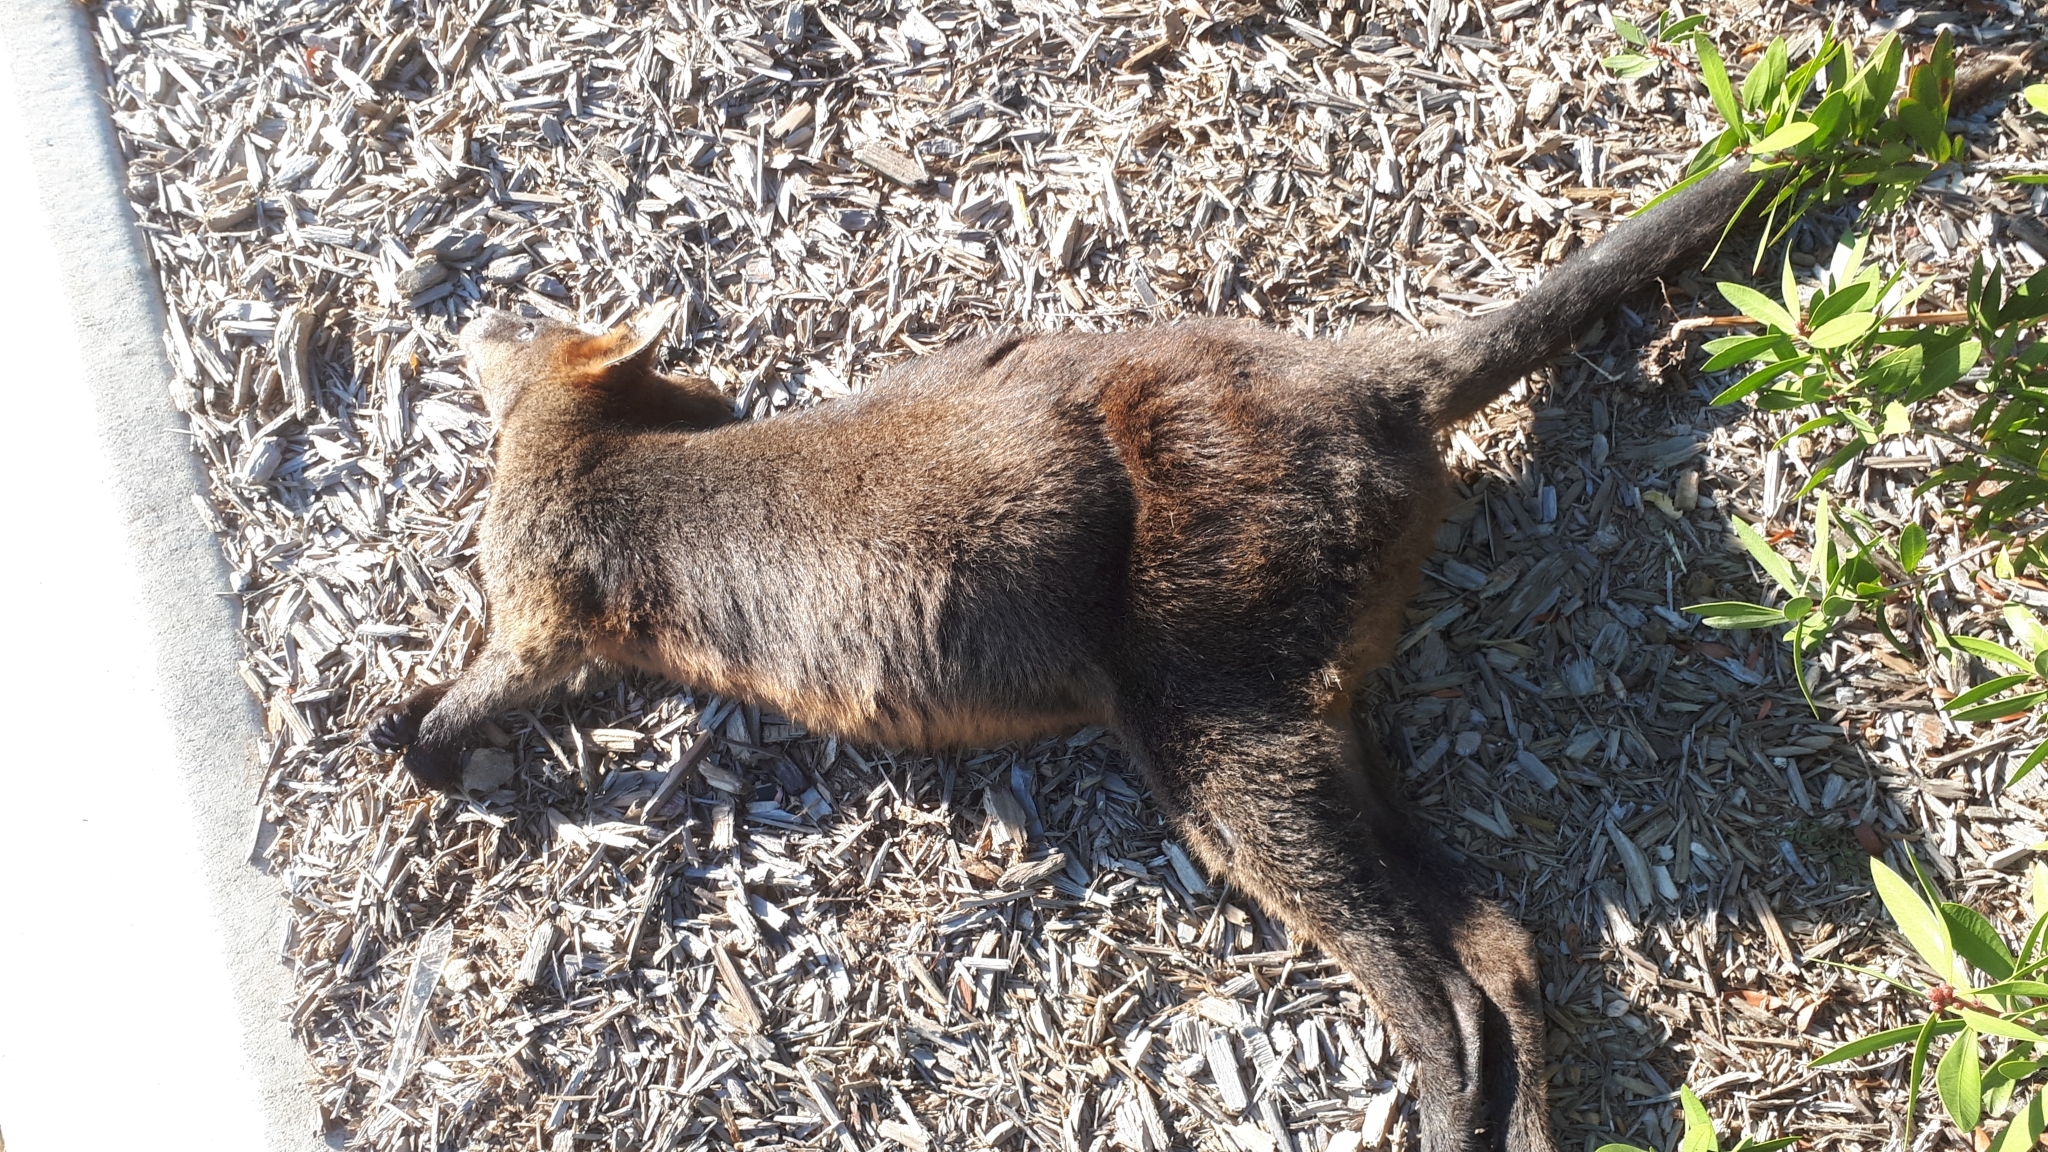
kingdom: Animalia
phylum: Chordata
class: Mammalia
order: Diprotodontia
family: Macropodidae
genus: Wallabia
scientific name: Wallabia bicolor
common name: Swamp wallaby
